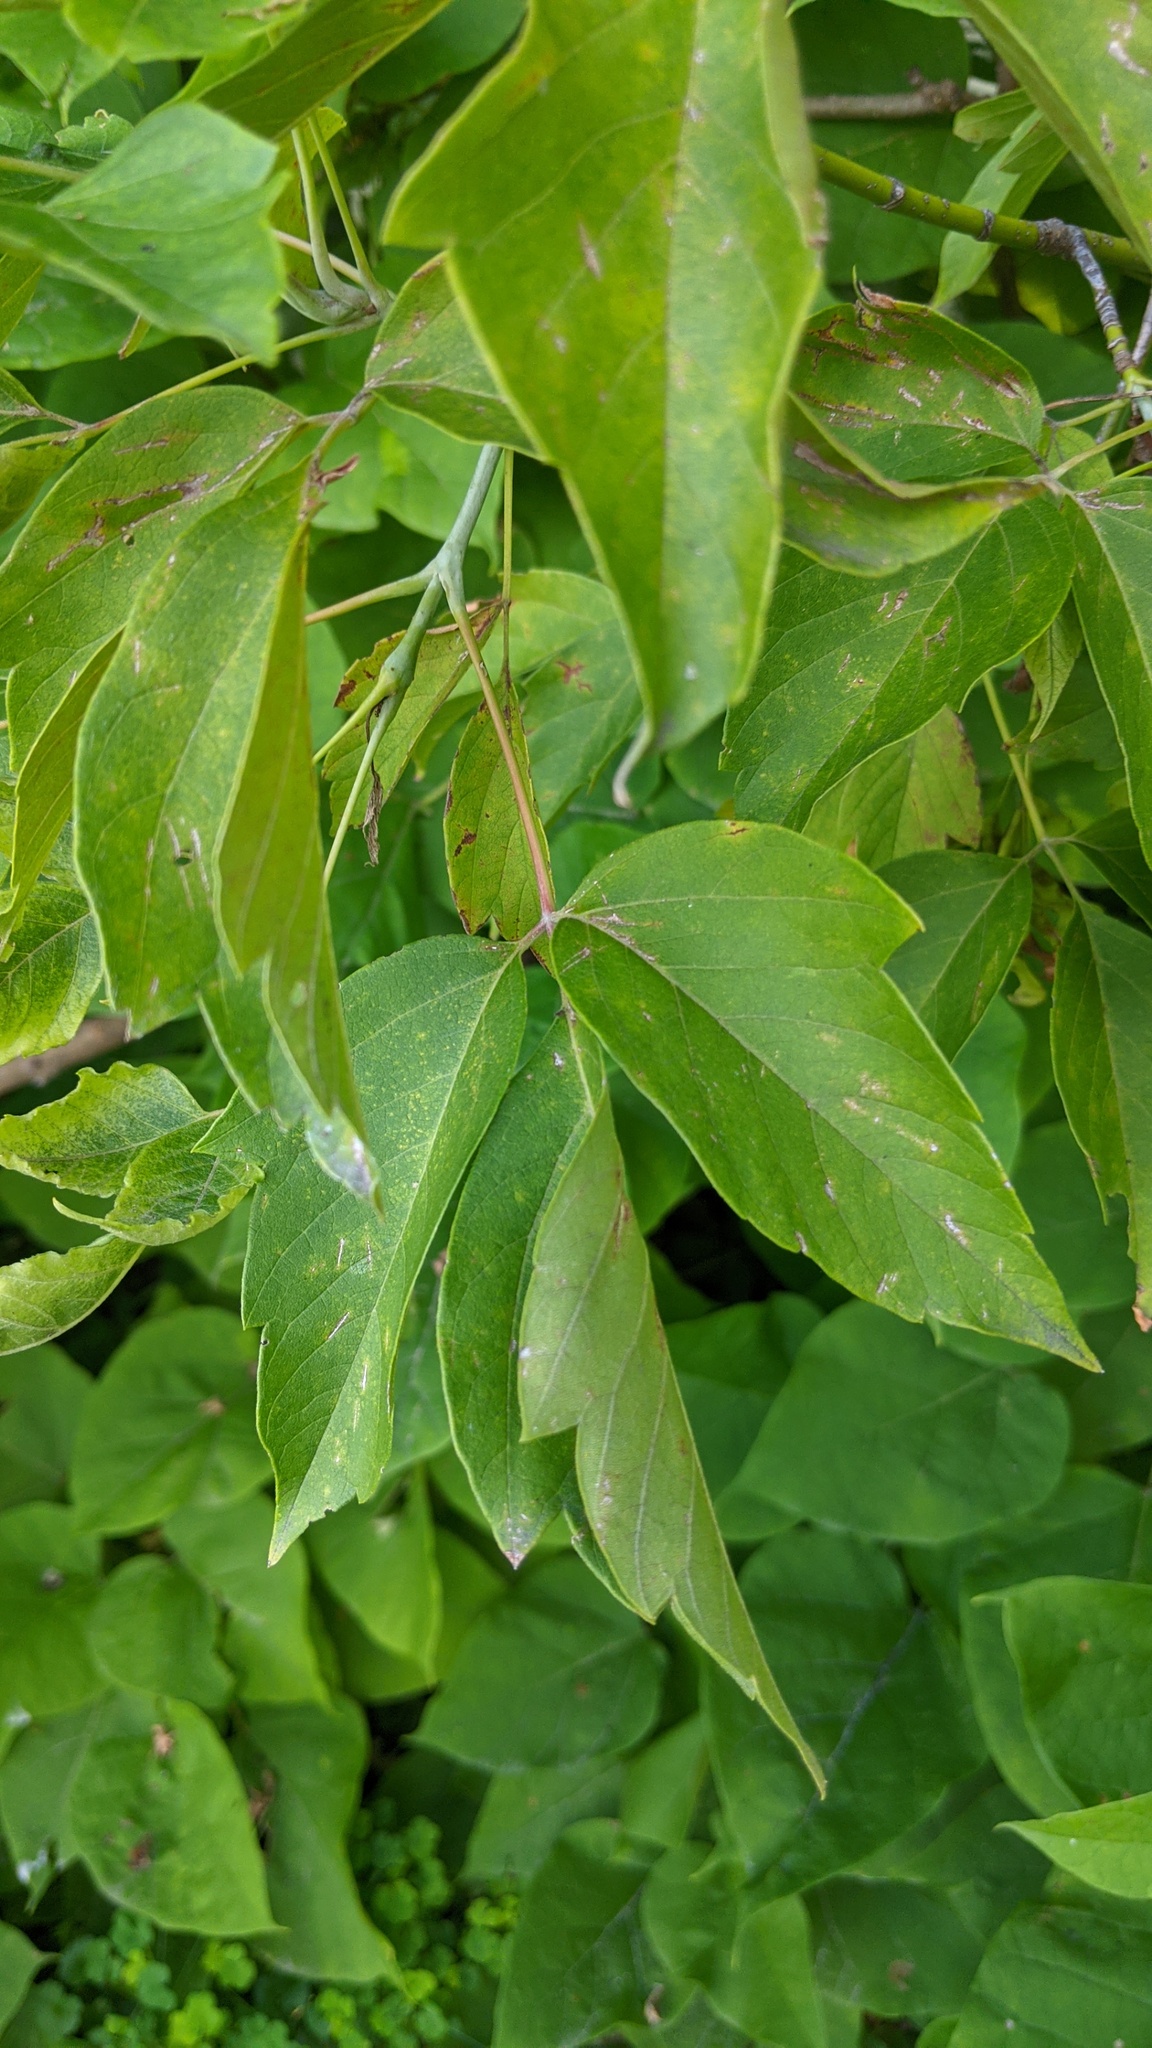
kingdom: Plantae
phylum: Tracheophyta
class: Magnoliopsida
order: Sapindales
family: Sapindaceae
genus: Acer
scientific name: Acer negundo
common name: Ashleaf maple
